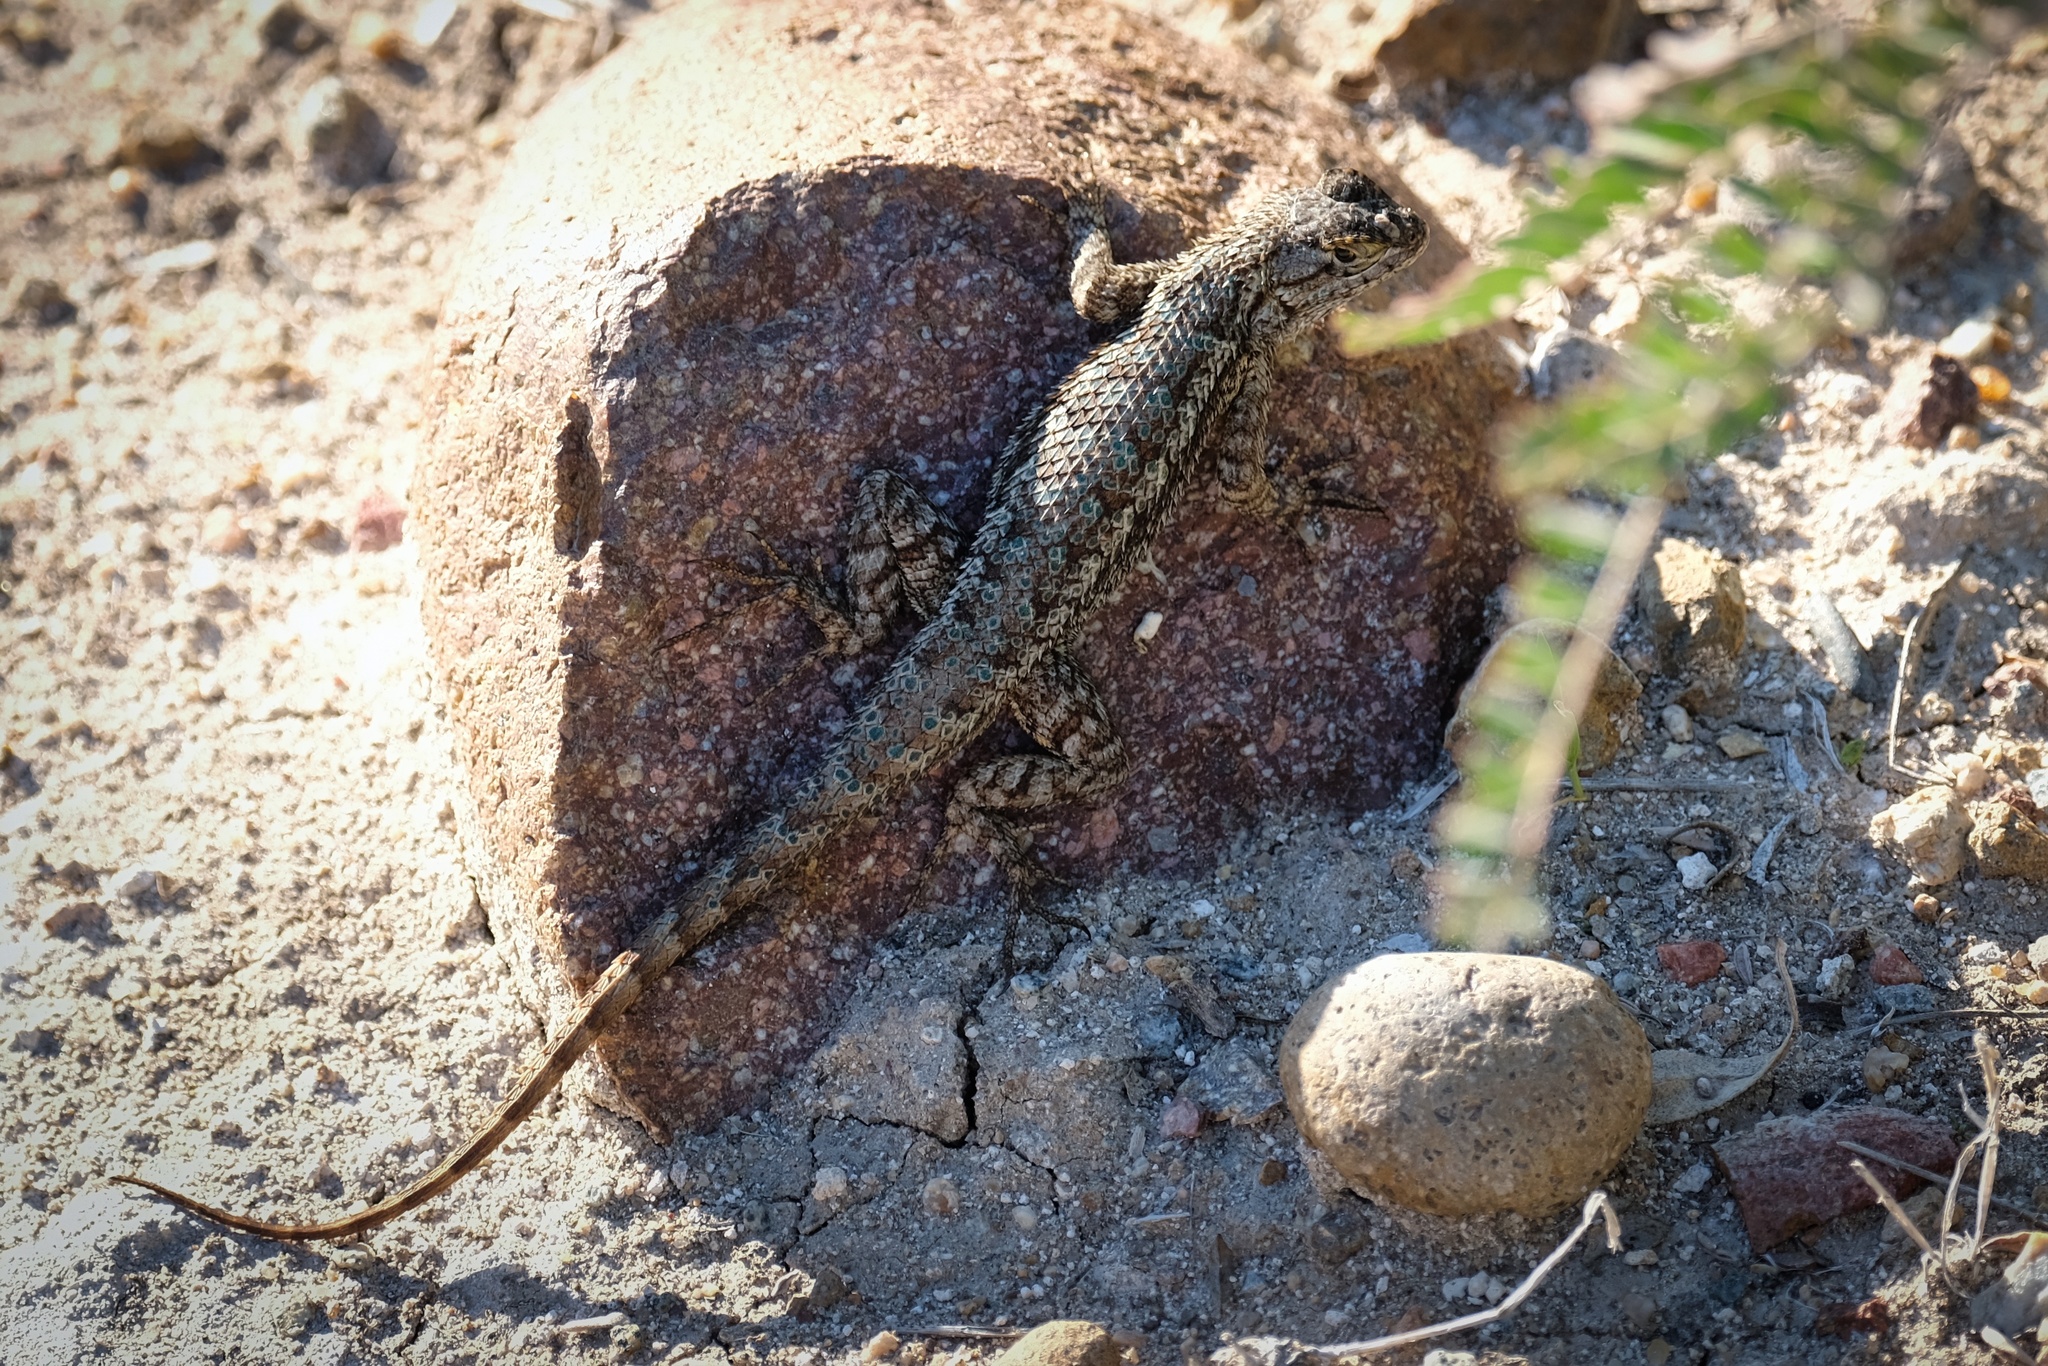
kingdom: Animalia
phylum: Chordata
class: Squamata
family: Phrynosomatidae
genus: Sceloporus
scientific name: Sceloporus occidentalis
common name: Western fence lizard
